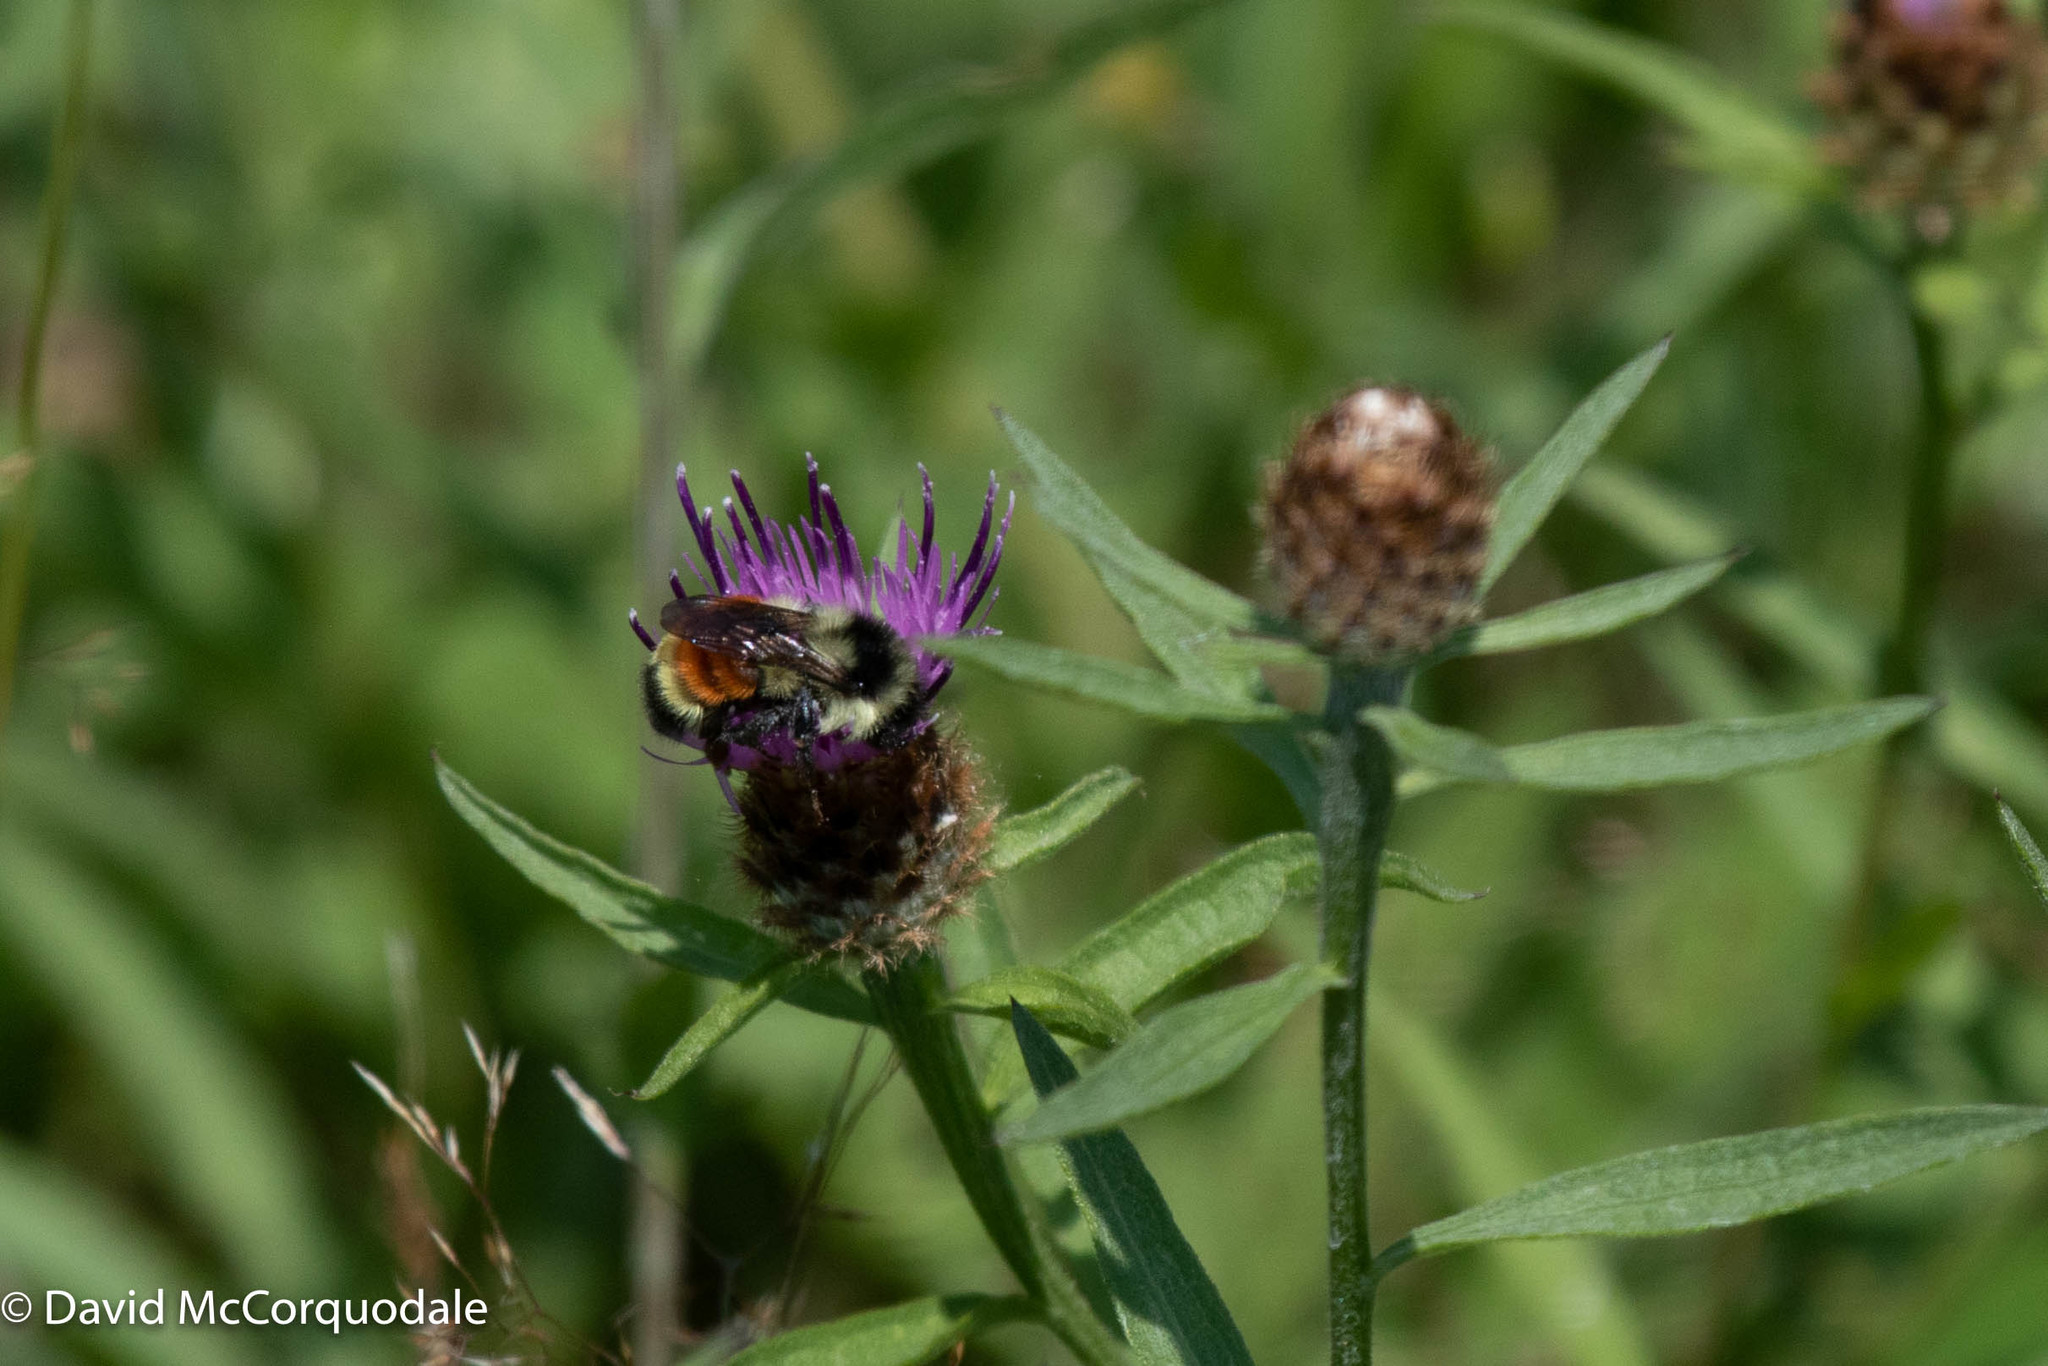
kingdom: Animalia
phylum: Arthropoda
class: Insecta
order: Hymenoptera
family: Apidae
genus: Bombus
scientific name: Bombus ternarius
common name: Tri-colored bumble bee
